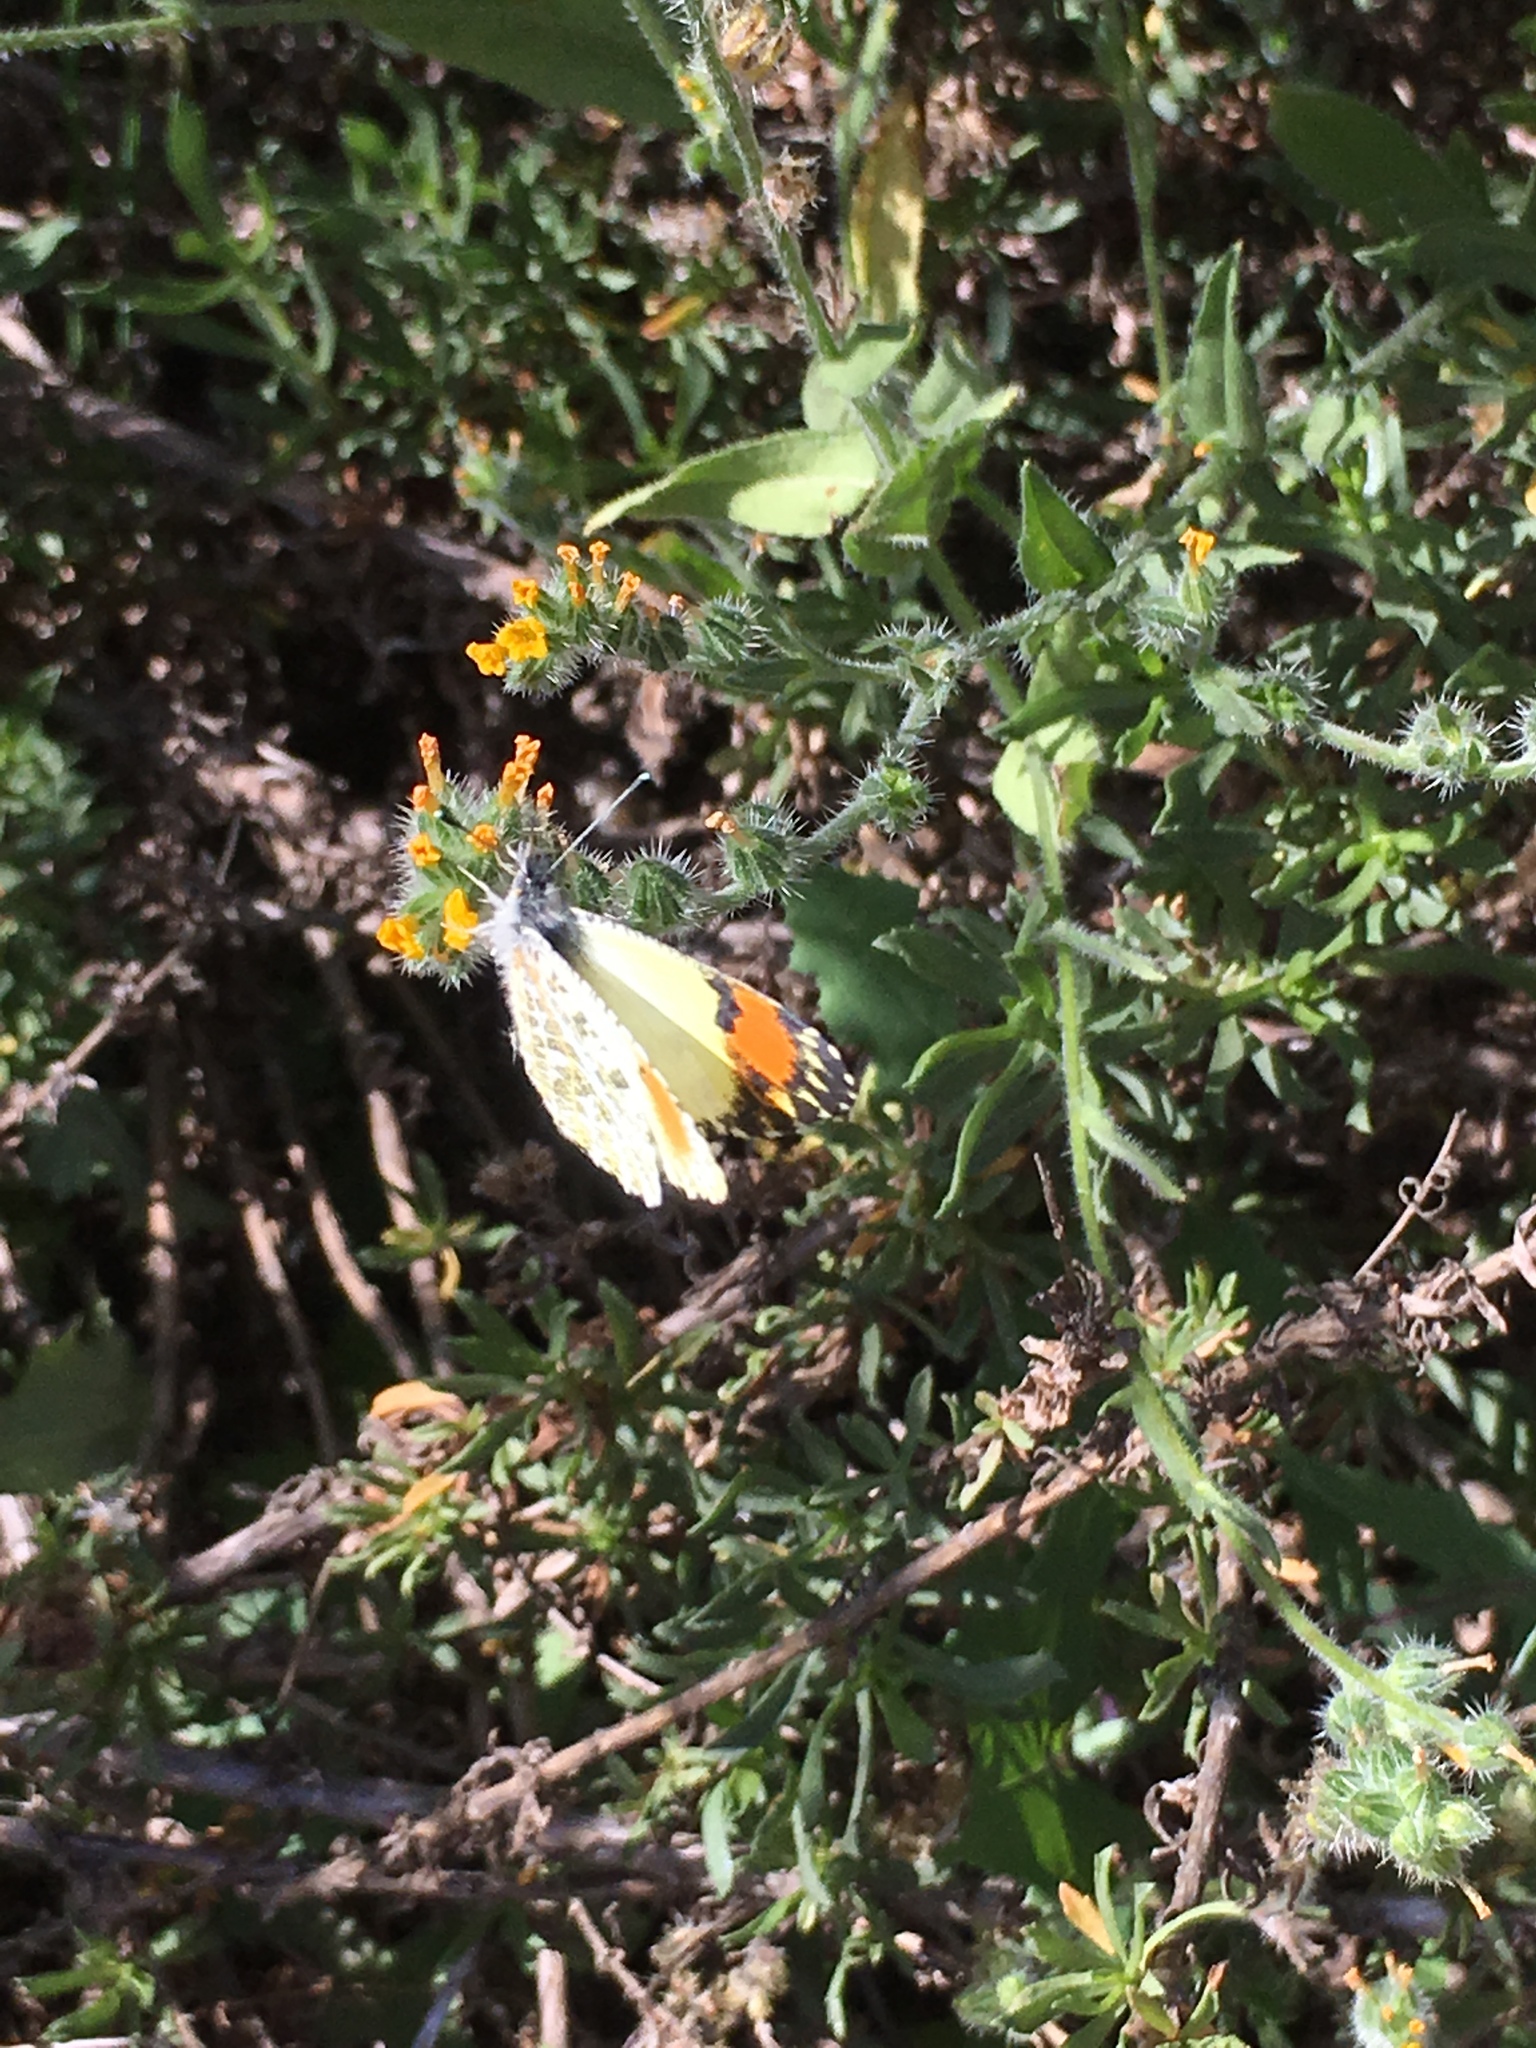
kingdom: Animalia
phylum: Arthropoda
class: Insecta
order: Lepidoptera
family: Pieridae
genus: Anthocharis
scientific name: Anthocharis sara
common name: Sara's orangetip
